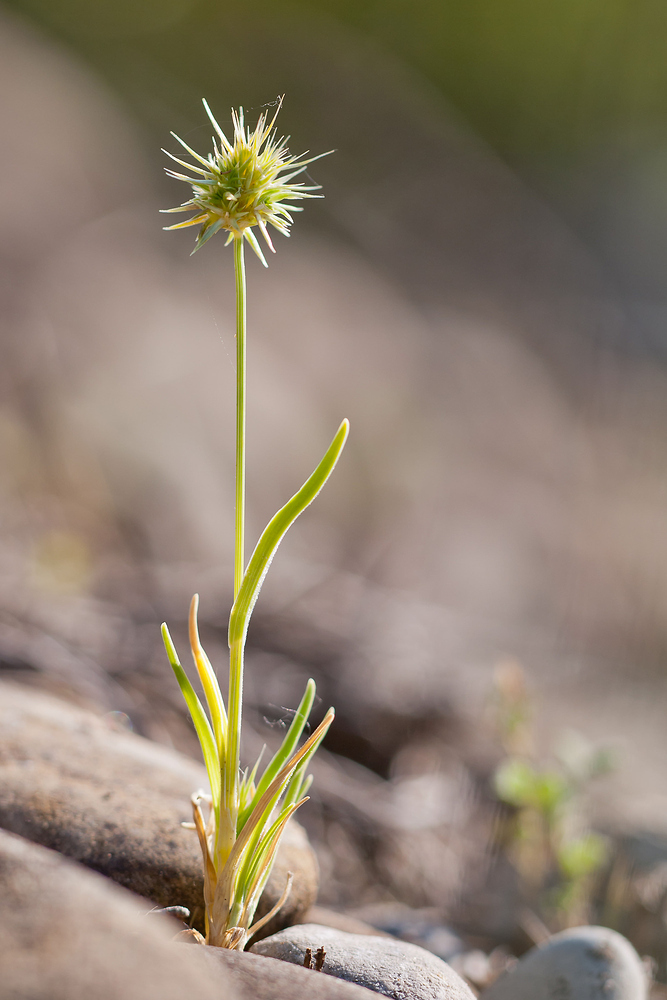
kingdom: Plantae
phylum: Tracheophyta
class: Liliopsida
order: Poales
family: Poaceae
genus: Echinaria
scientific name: Echinaria capitata
